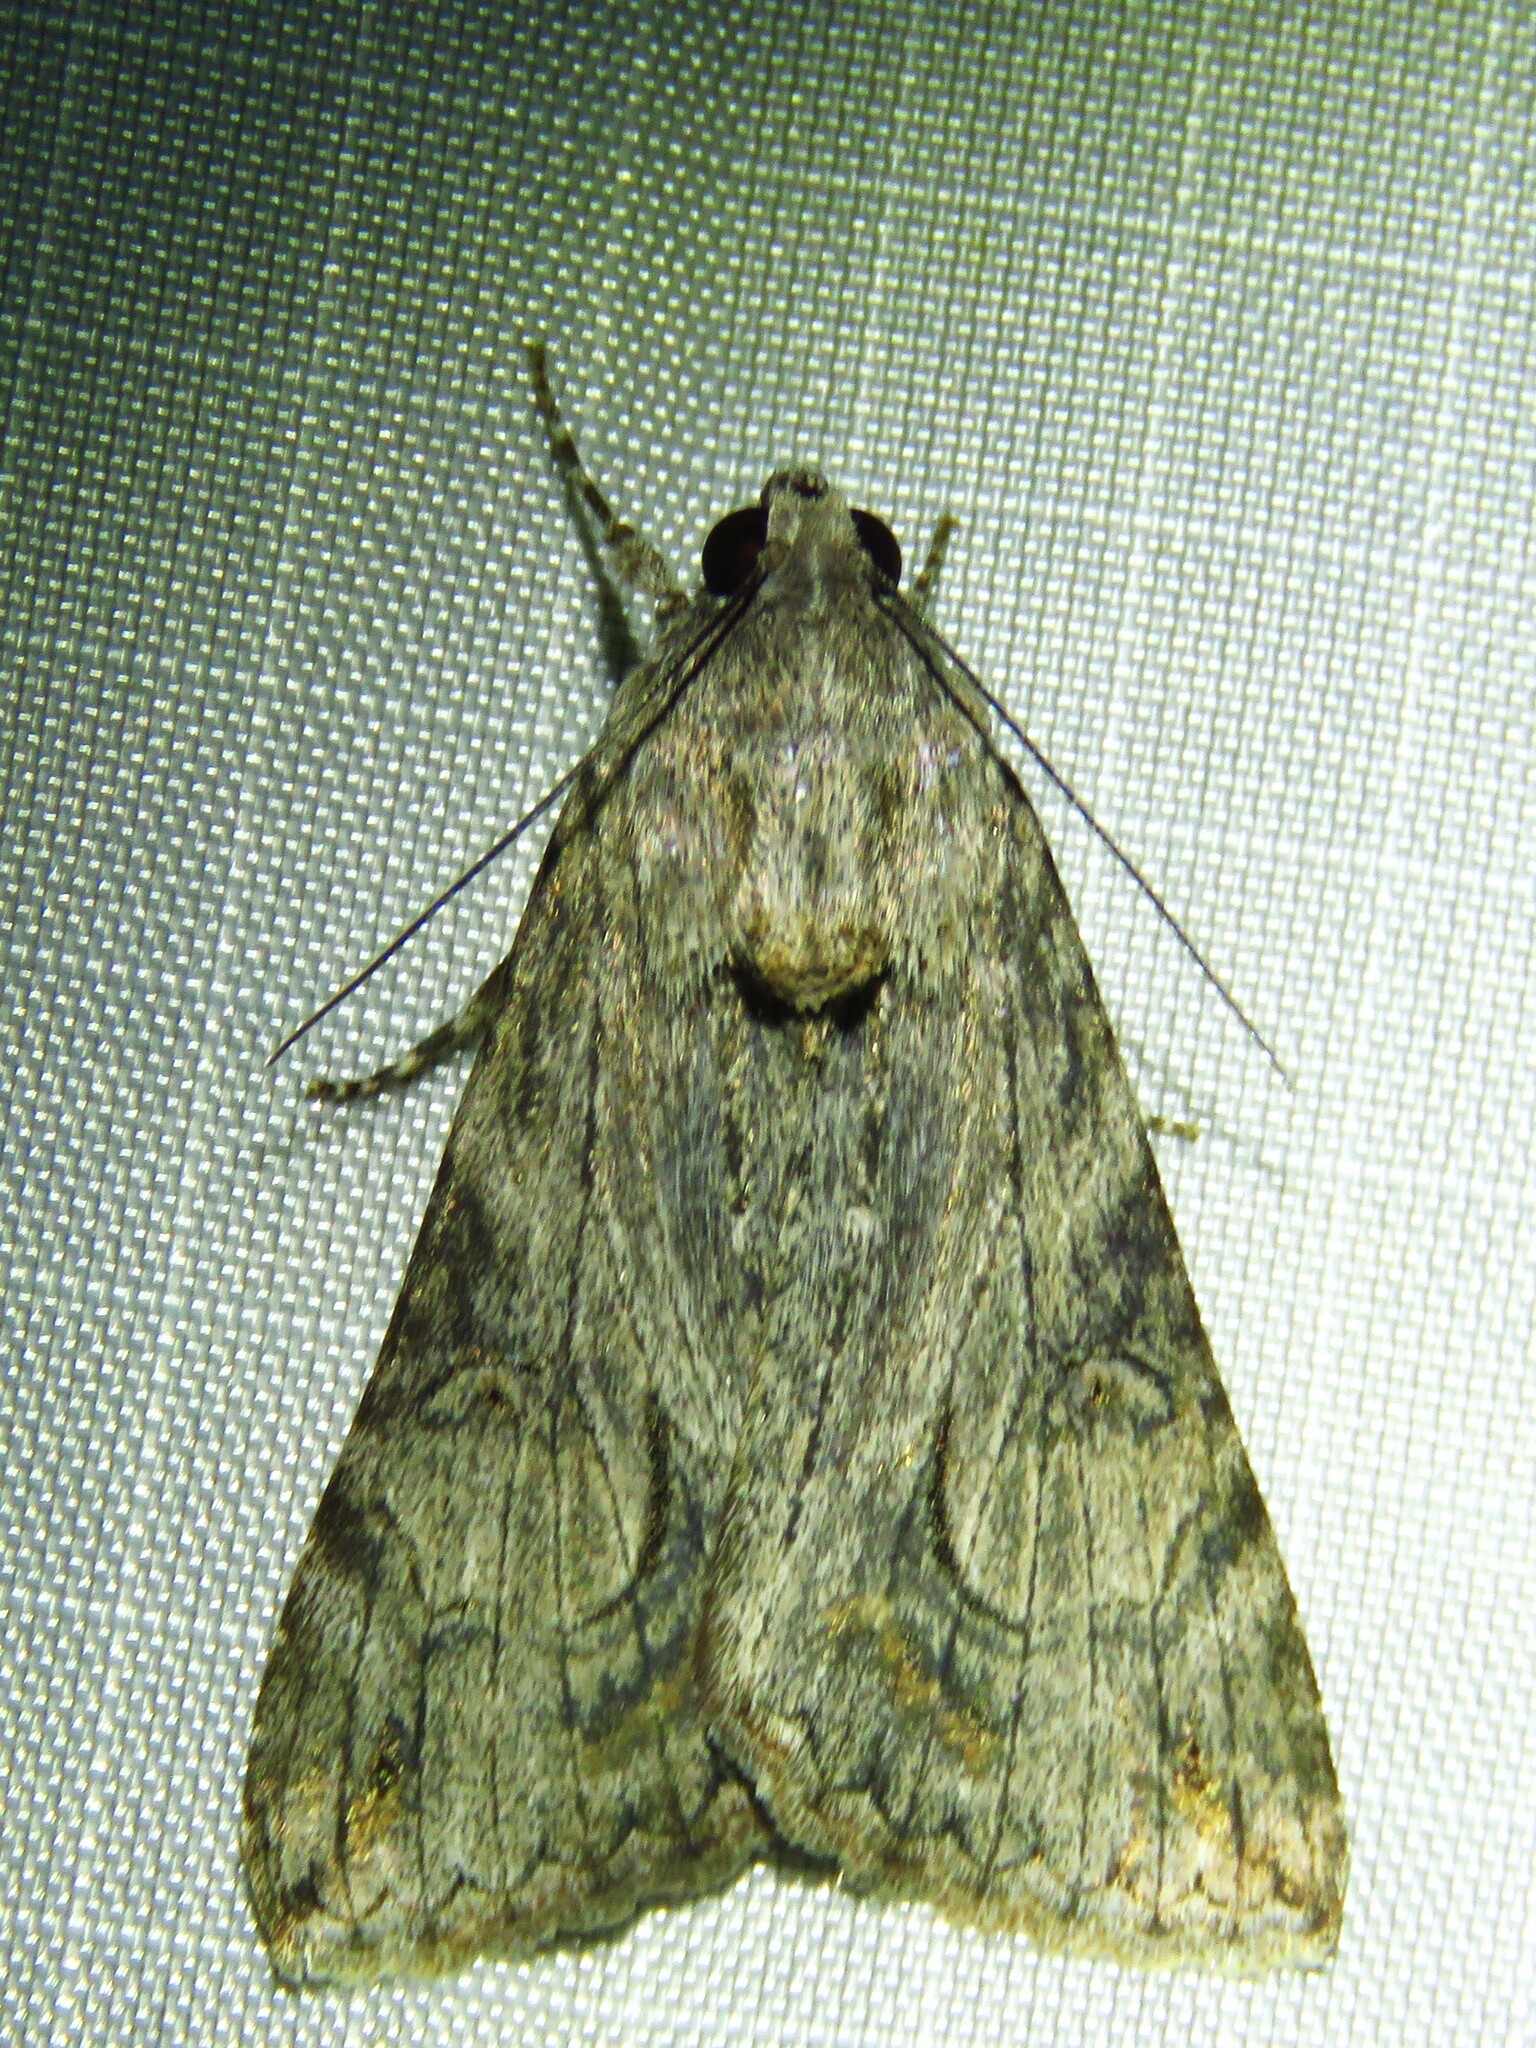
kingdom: Animalia
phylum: Arthropoda
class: Insecta
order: Lepidoptera
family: Erebidae
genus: Melipotis
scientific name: Melipotis jucunda
